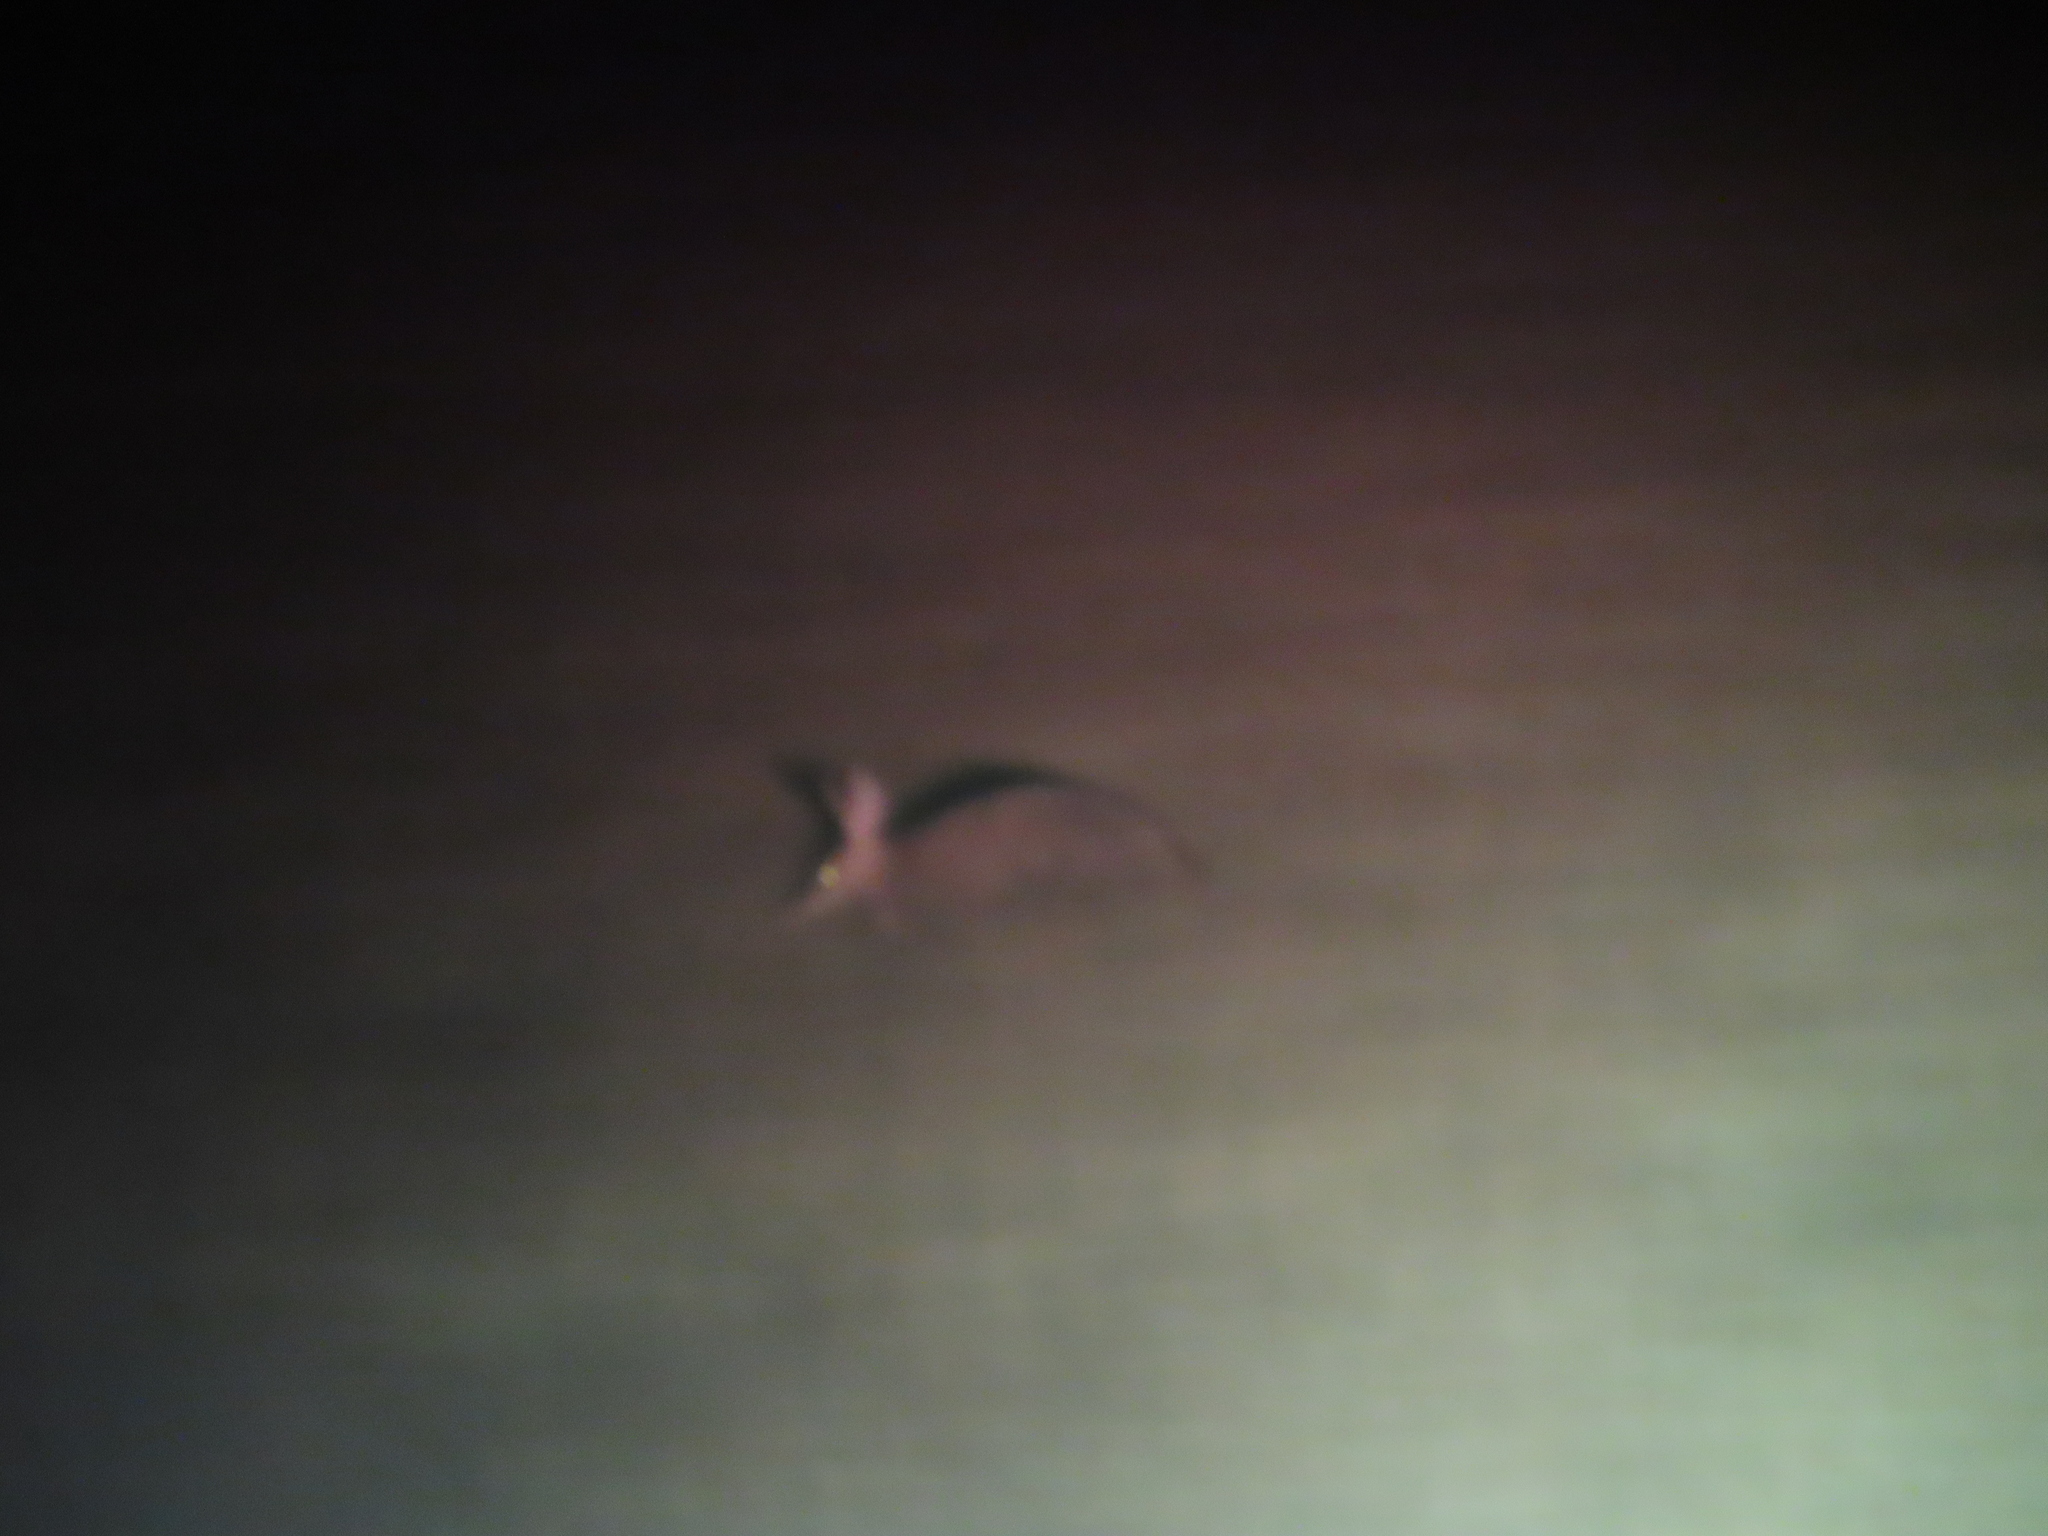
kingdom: Animalia
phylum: Chordata
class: Mammalia
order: Tubulidentata
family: Orycteropodidae
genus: Orycteropus
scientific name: Orycteropus afer
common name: Aardvark
